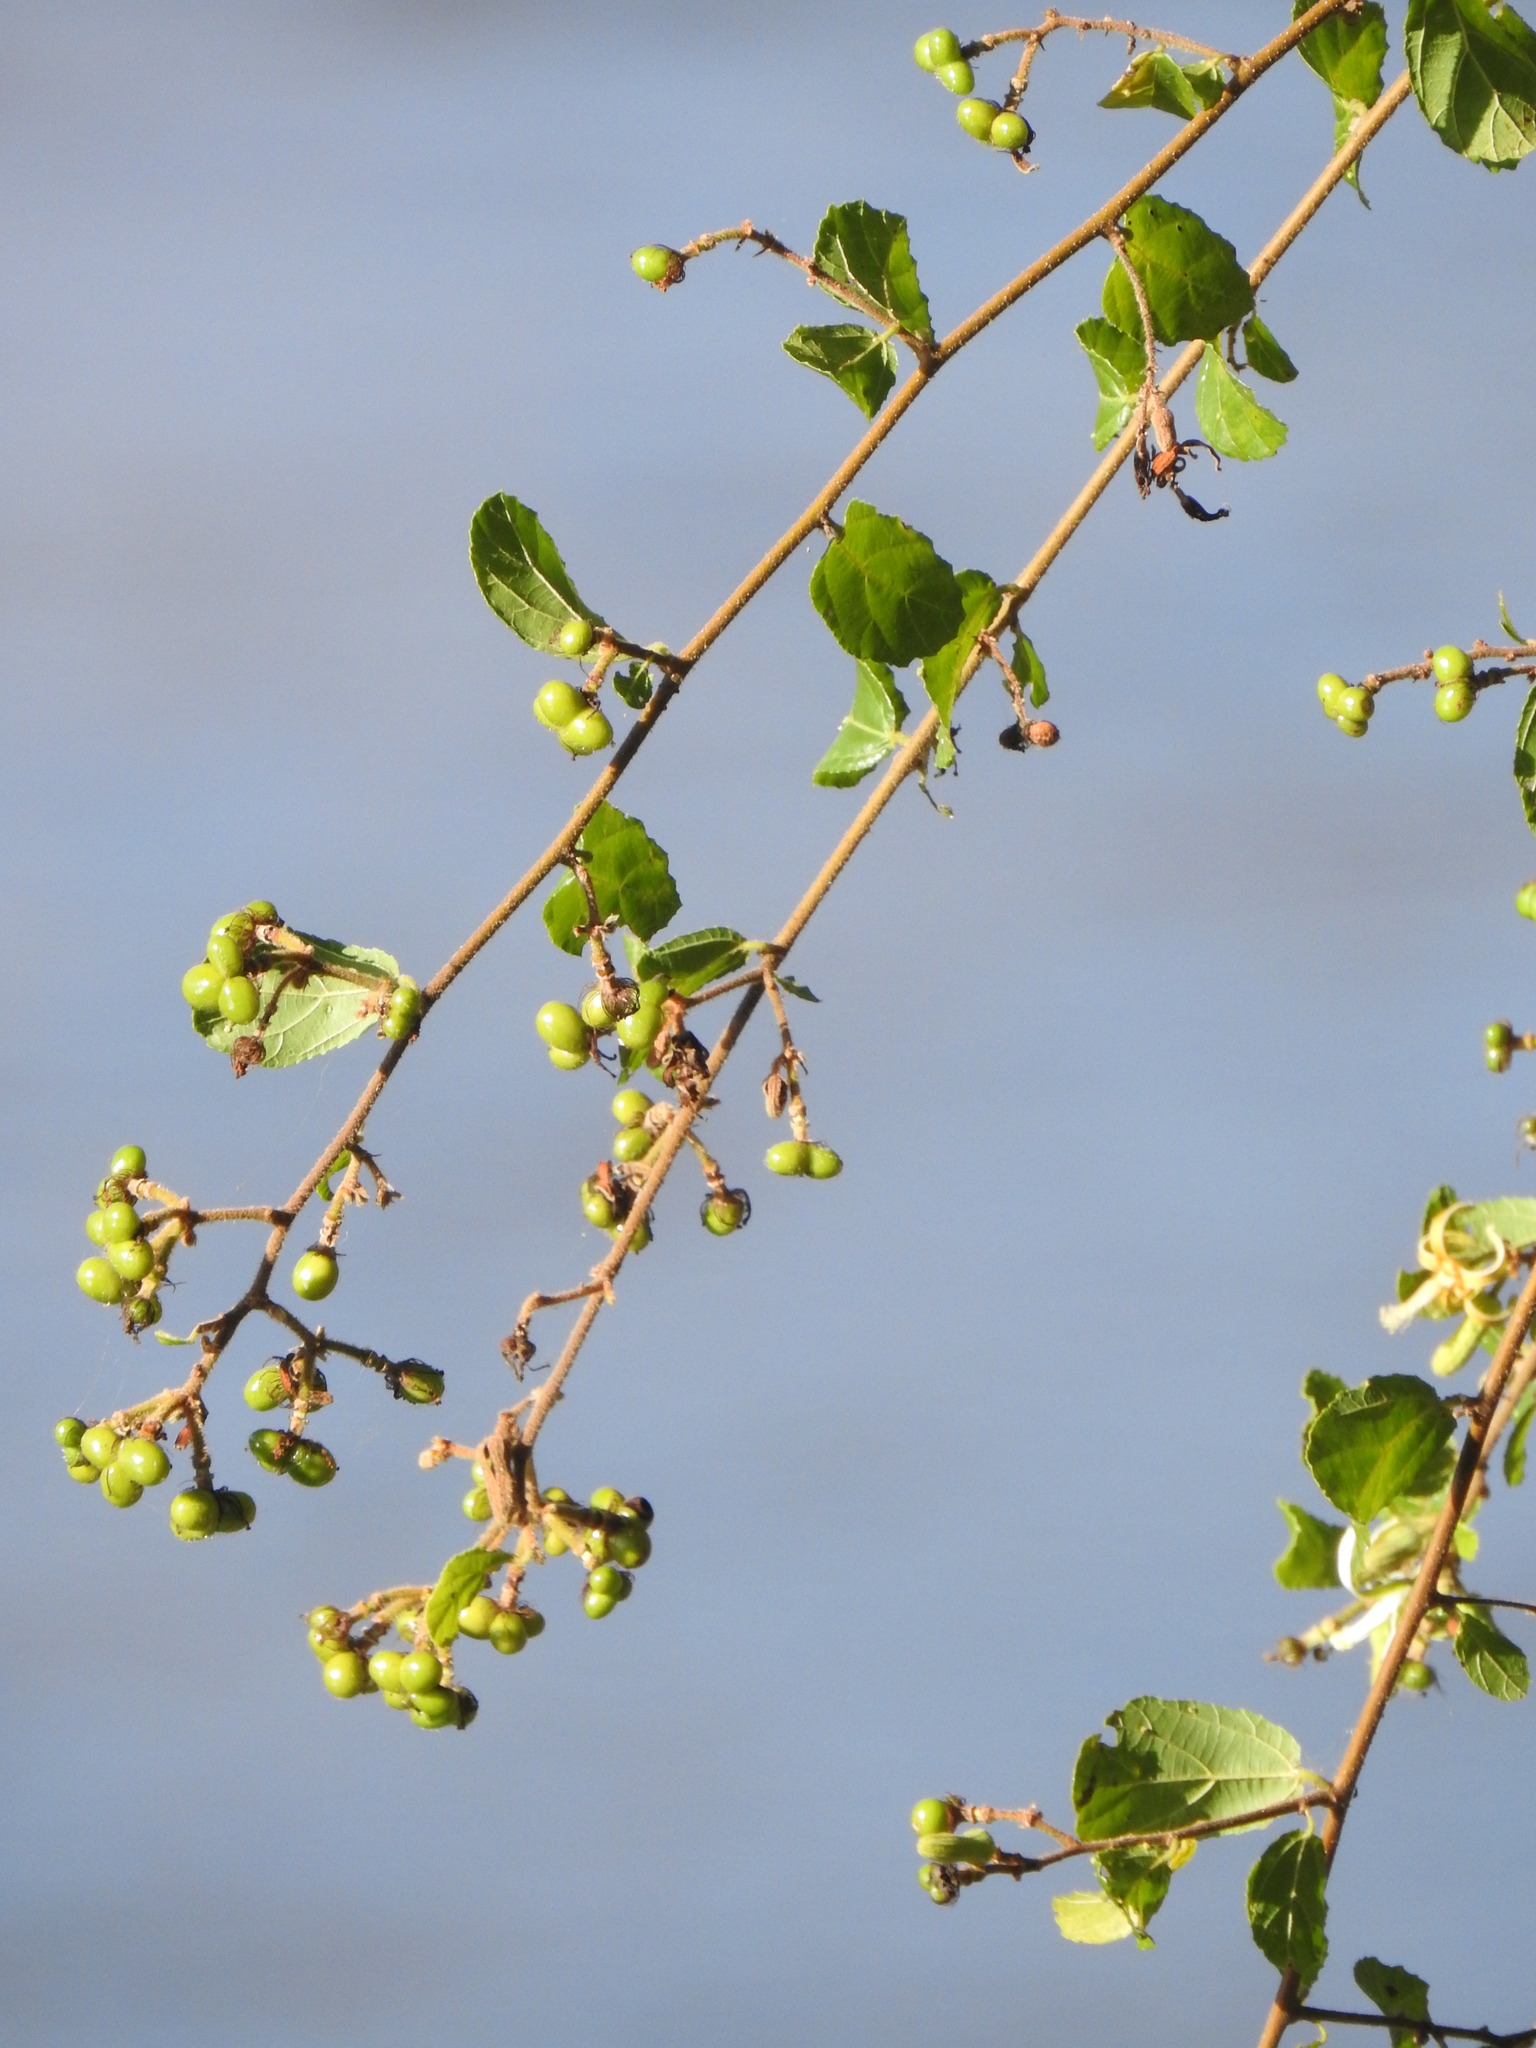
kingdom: Plantae
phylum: Tracheophyta
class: Magnoliopsida
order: Malvales
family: Malvaceae
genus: Grewia
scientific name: Grewia sulcata
